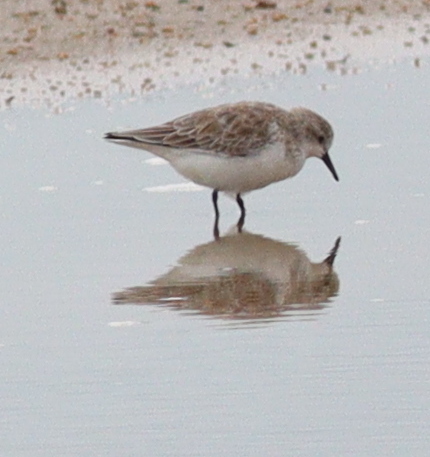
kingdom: Animalia
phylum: Chordata
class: Aves
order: Charadriiformes
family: Scolopacidae
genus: Calidris
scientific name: Calidris ruficollis
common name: Red-necked stint
